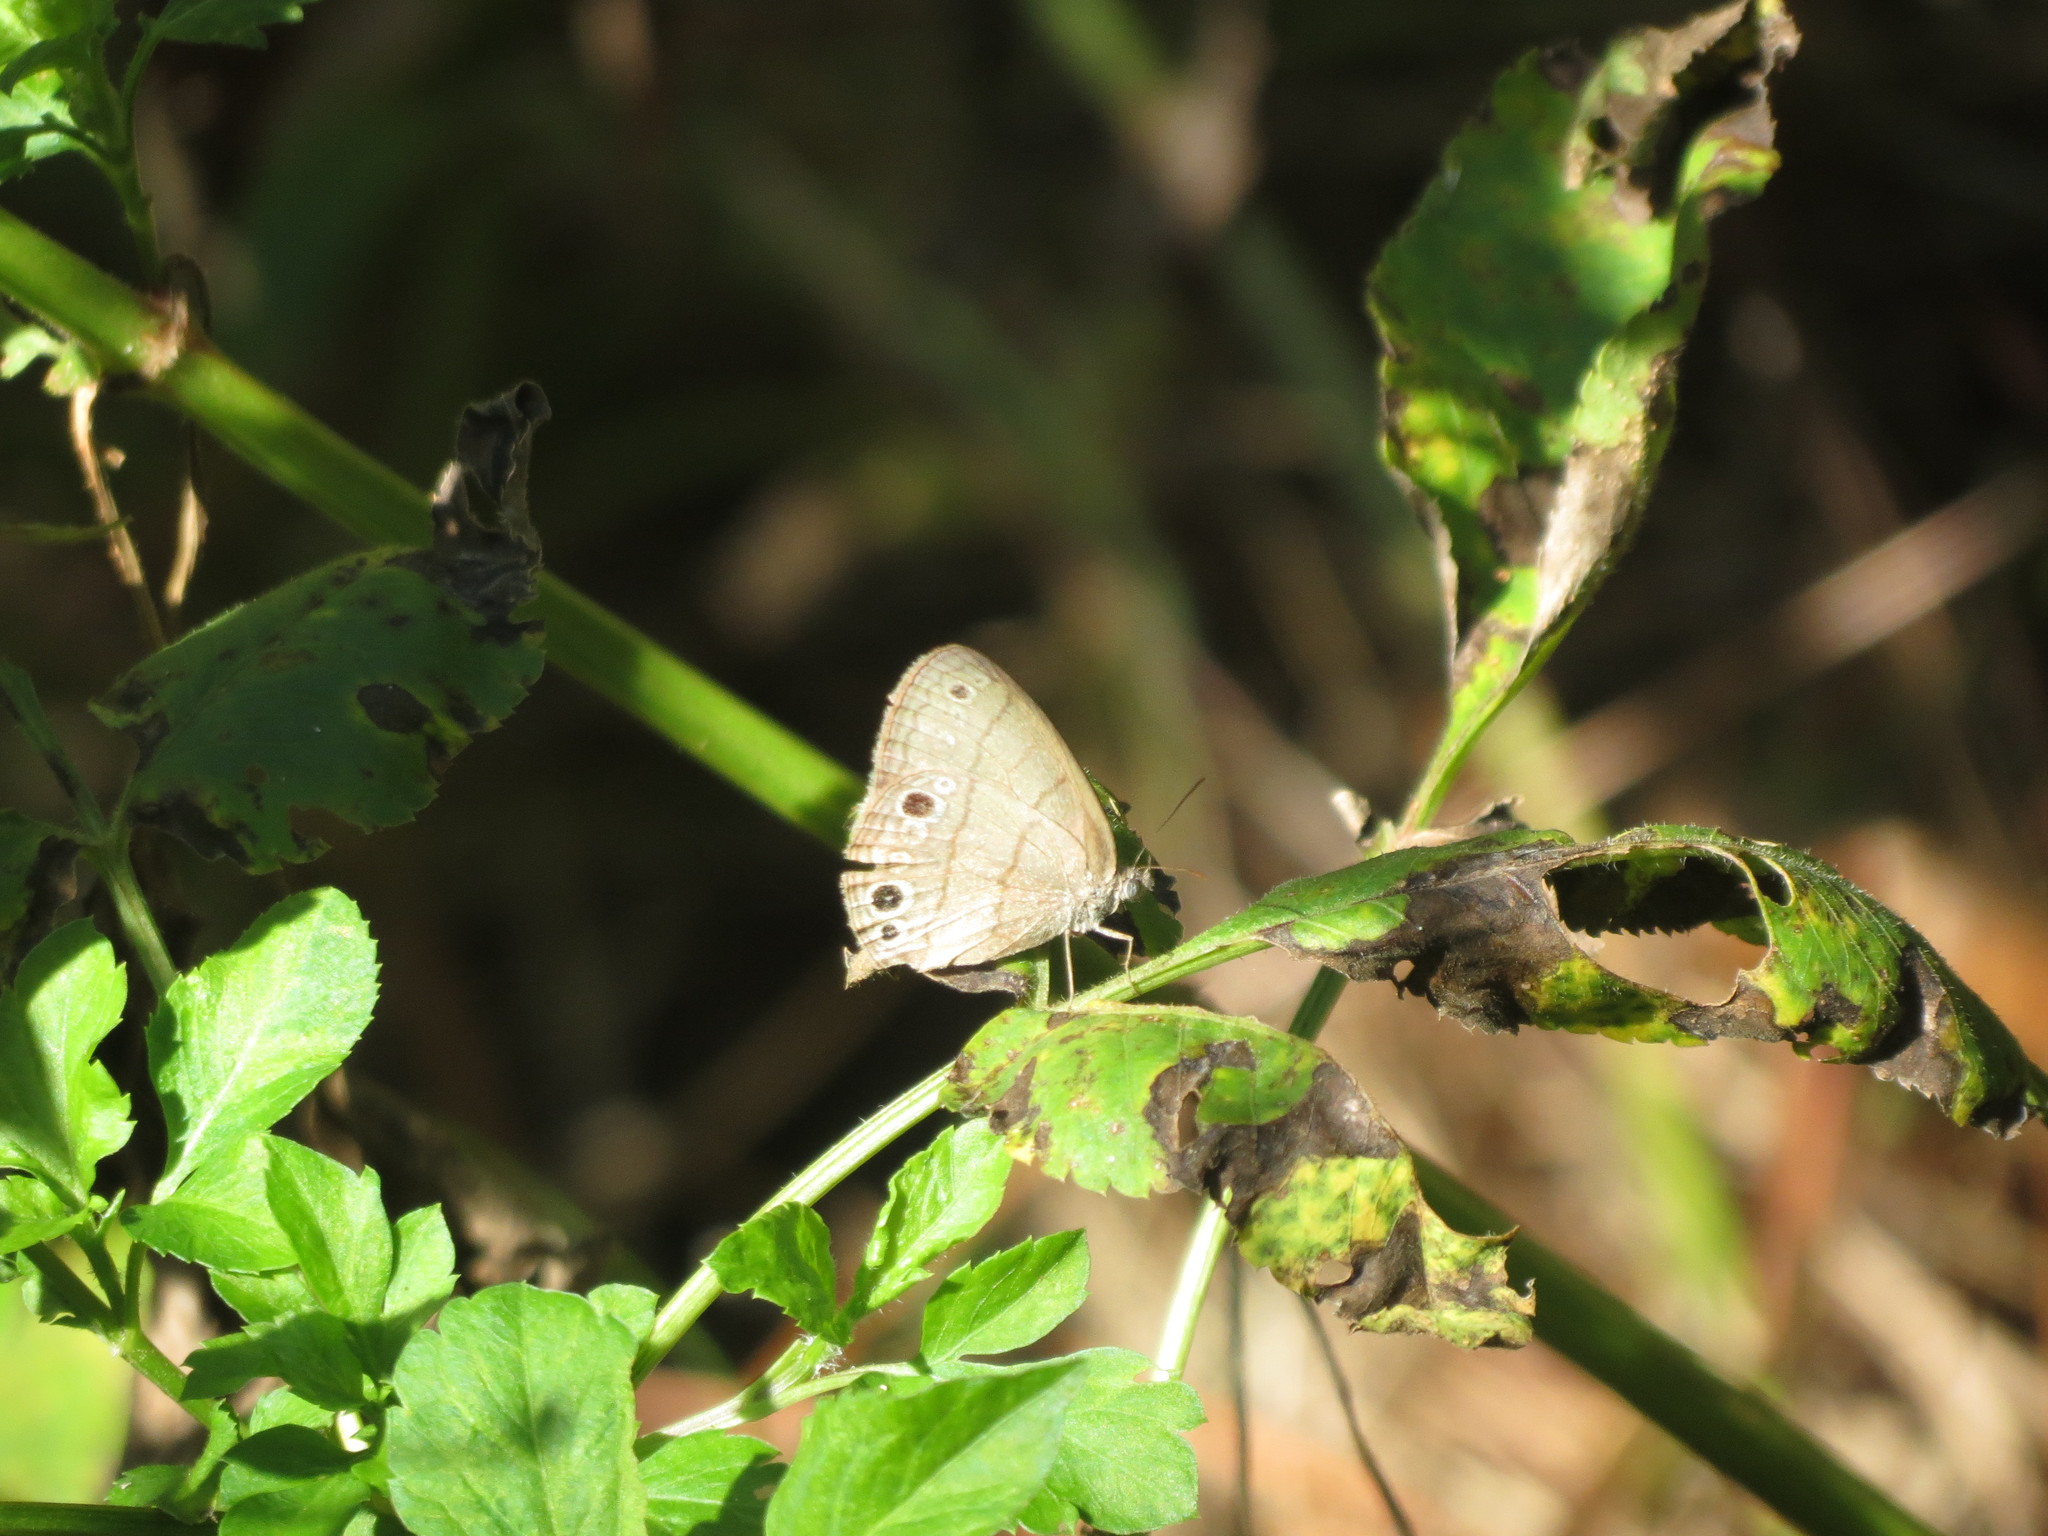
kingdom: Animalia
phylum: Arthropoda
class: Insecta
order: Lepidoptera
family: Nymphalidae
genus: Hermeuptychia
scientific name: Hermeuptychia hermes
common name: Hermes satyr
